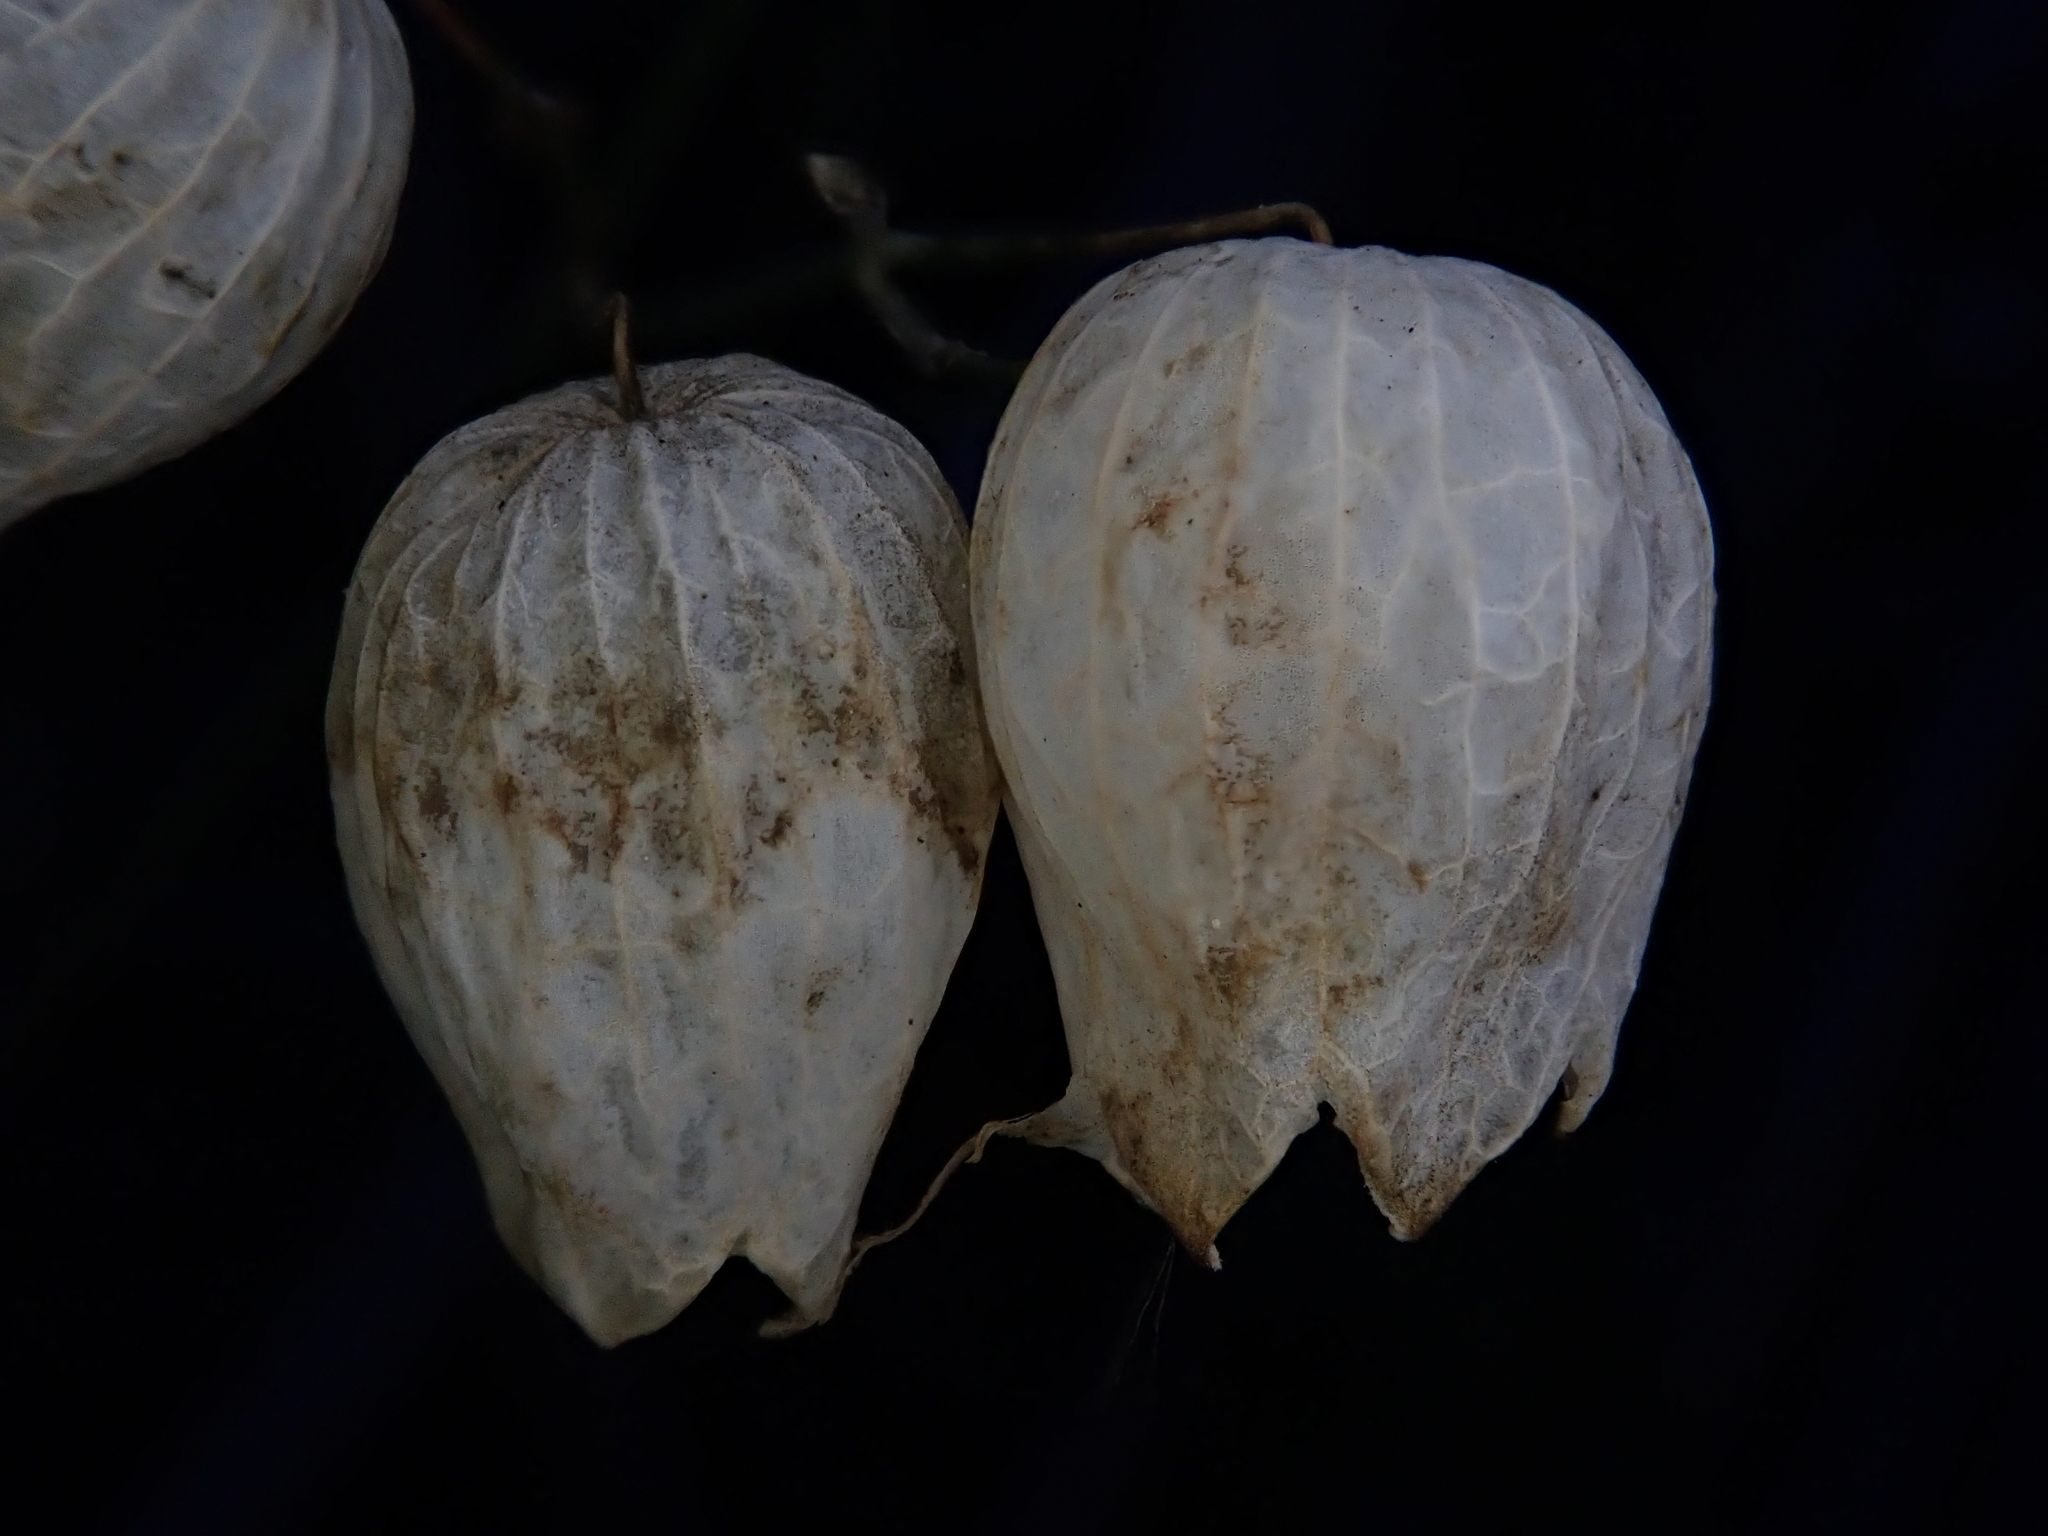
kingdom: Plantae
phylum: Tracheophyta
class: Magnoliopsida
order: Caryophyllales
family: Caryophyllaceae
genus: Silene
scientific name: Silene vulgaris
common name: Bladder campion
